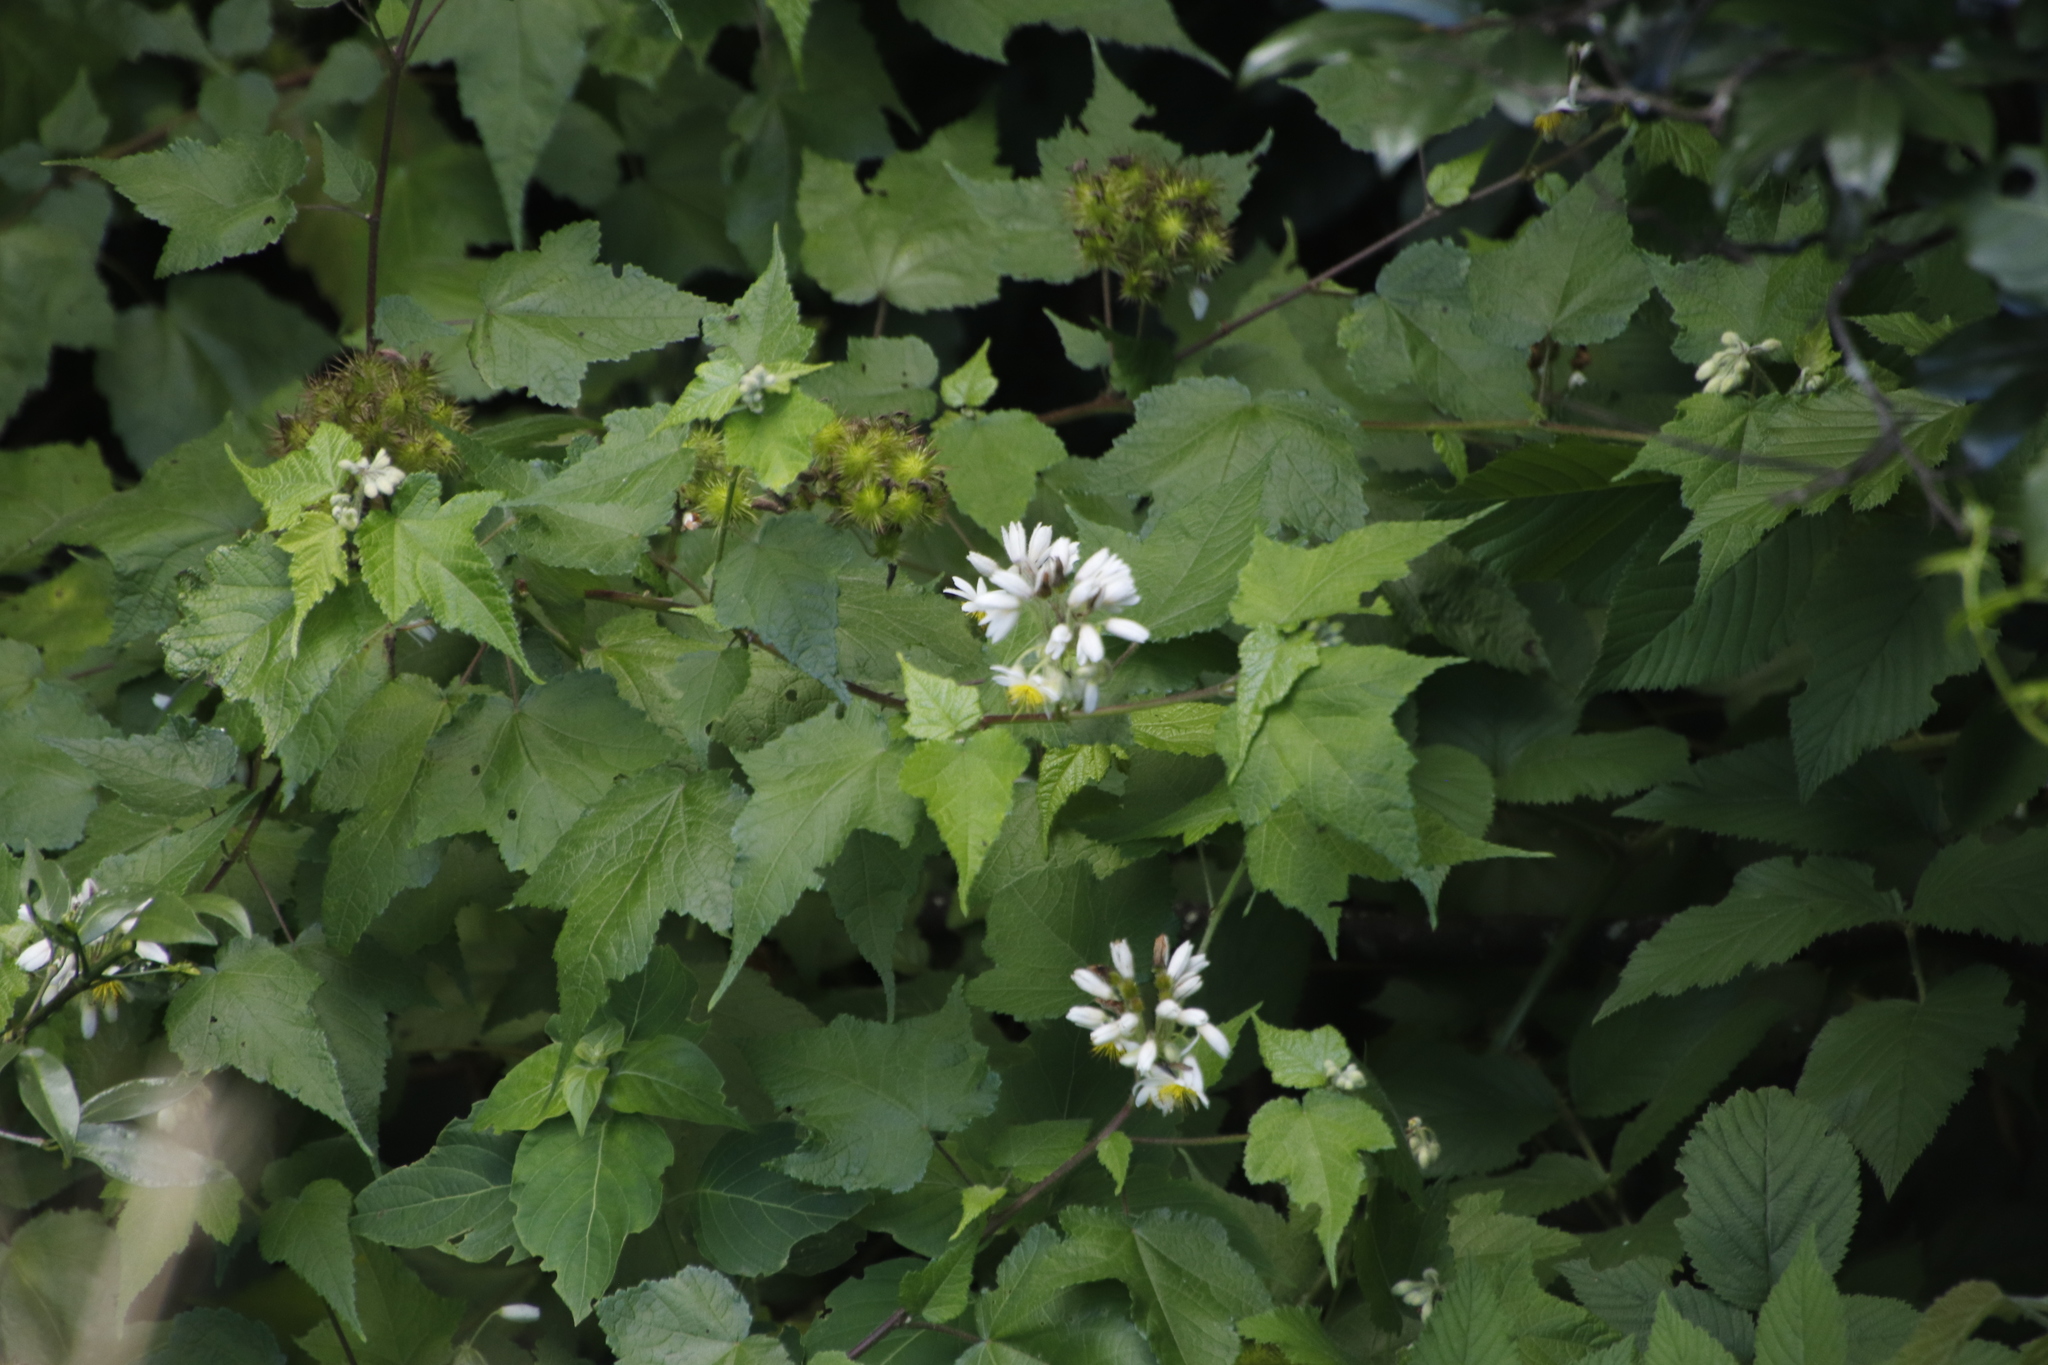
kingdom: Plantae
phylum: Tracheophyta
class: Magnoliopsida
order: Malvales
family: Malvaceae
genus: Sparrmannia
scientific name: Sparrmannia ricinocarpa
